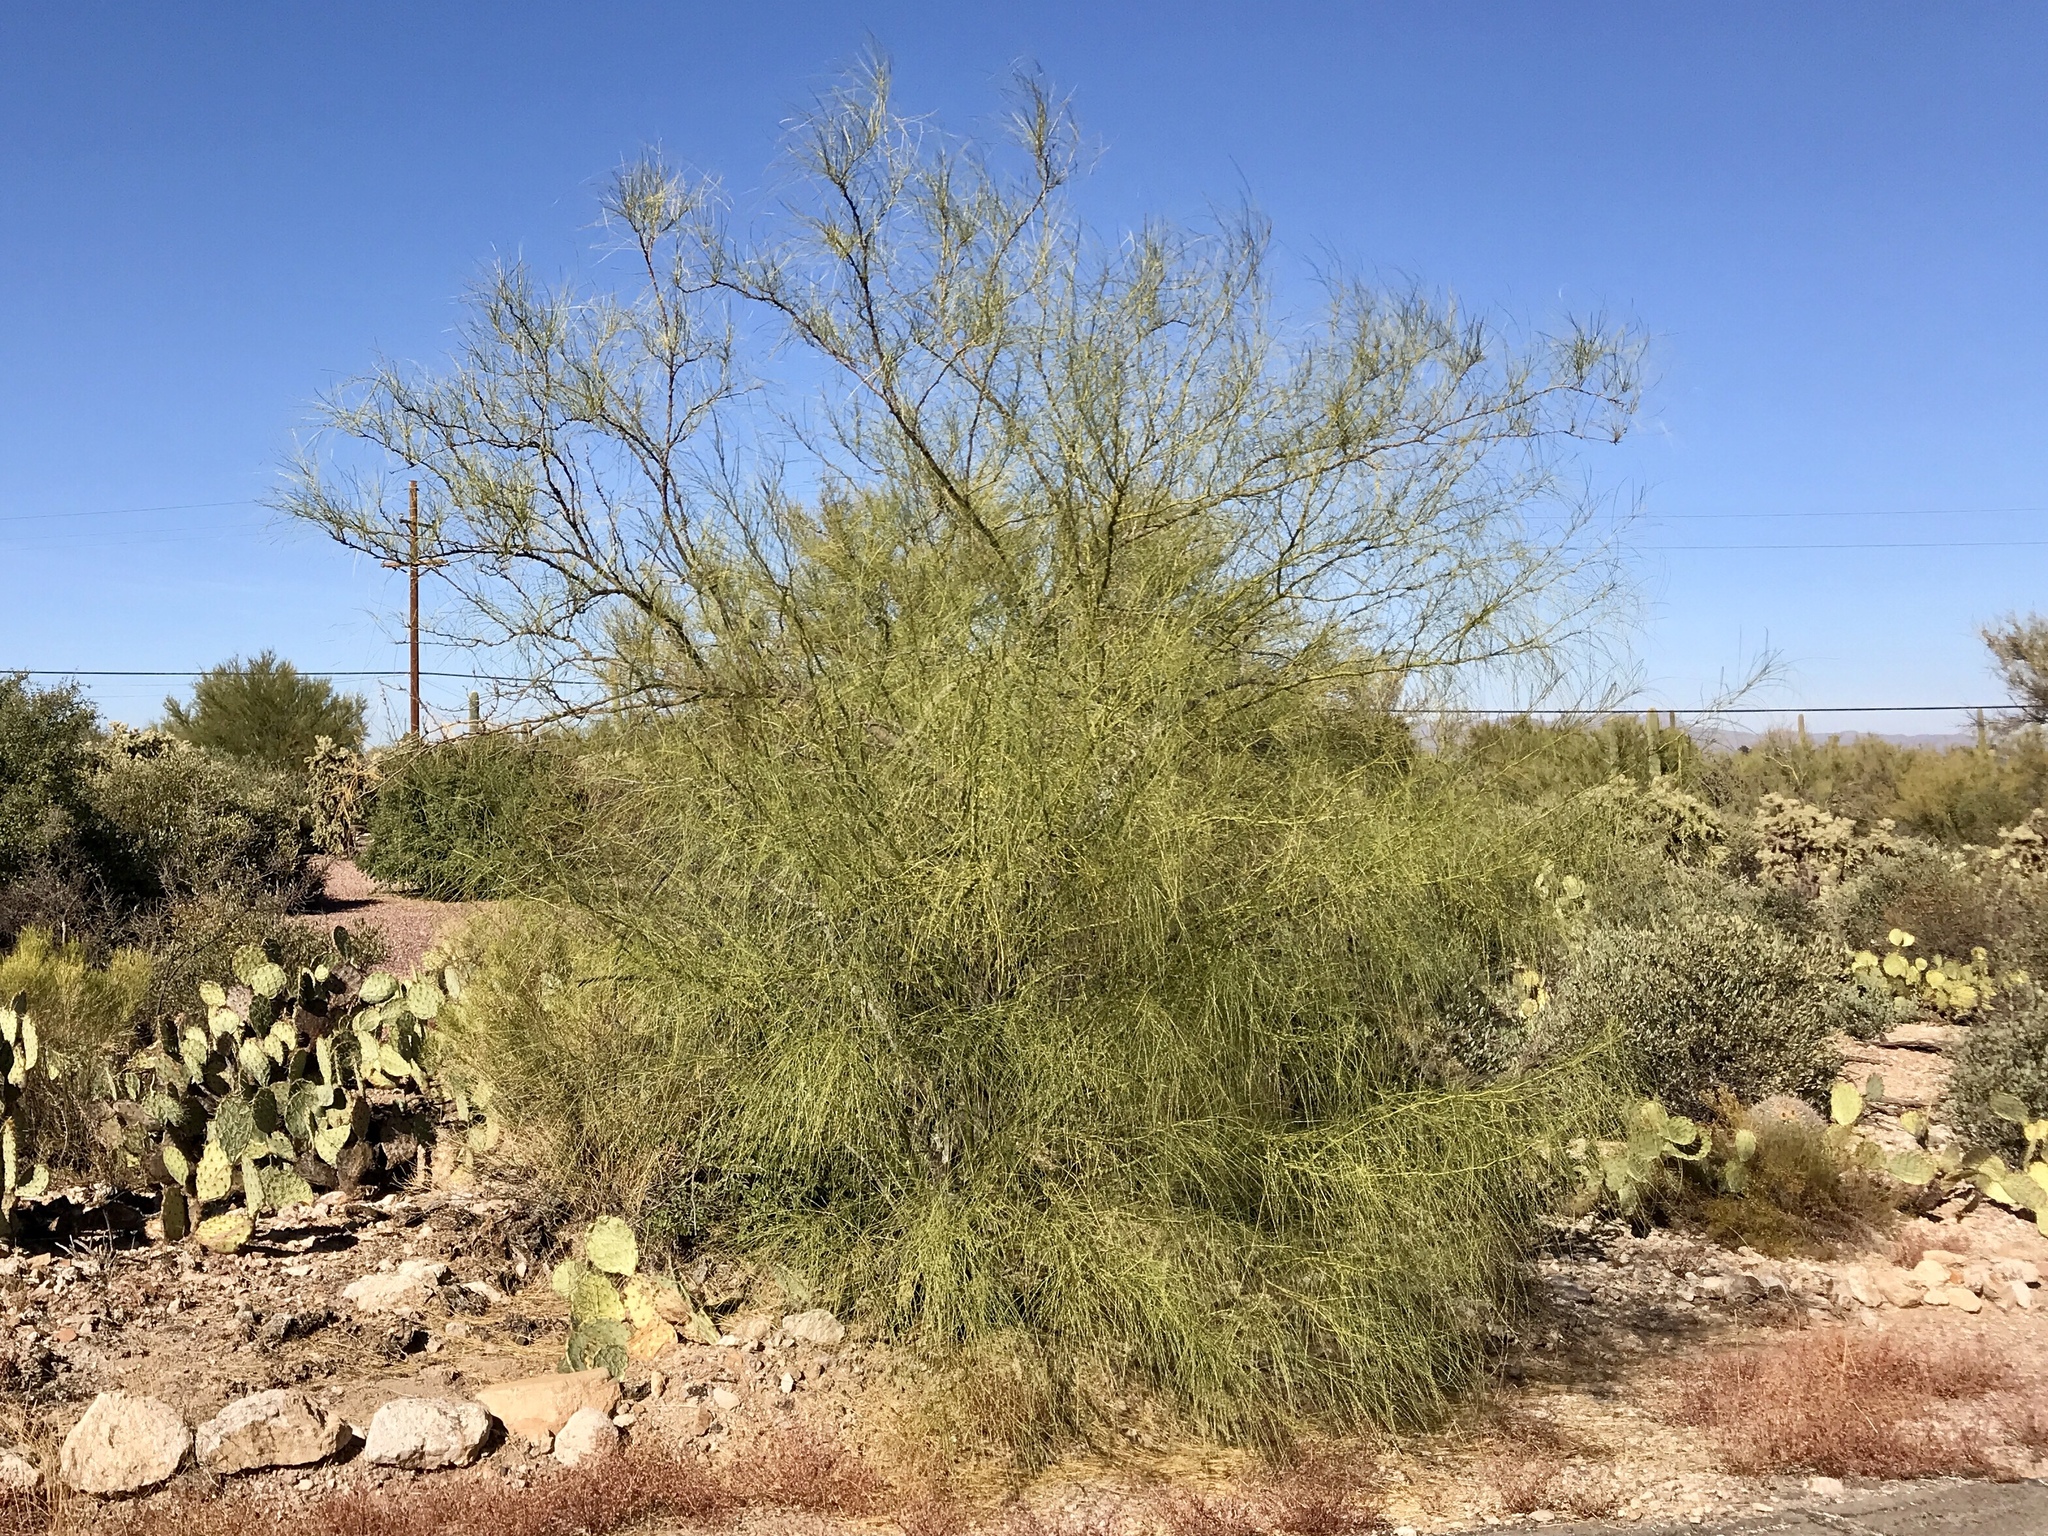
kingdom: Plantae
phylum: Tracheophyta
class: Magnoliopsida
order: Fabales
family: Fabaceae
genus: Parkinsonia
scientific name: Parkinsonia aculeata
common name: Jerusalem thorn
